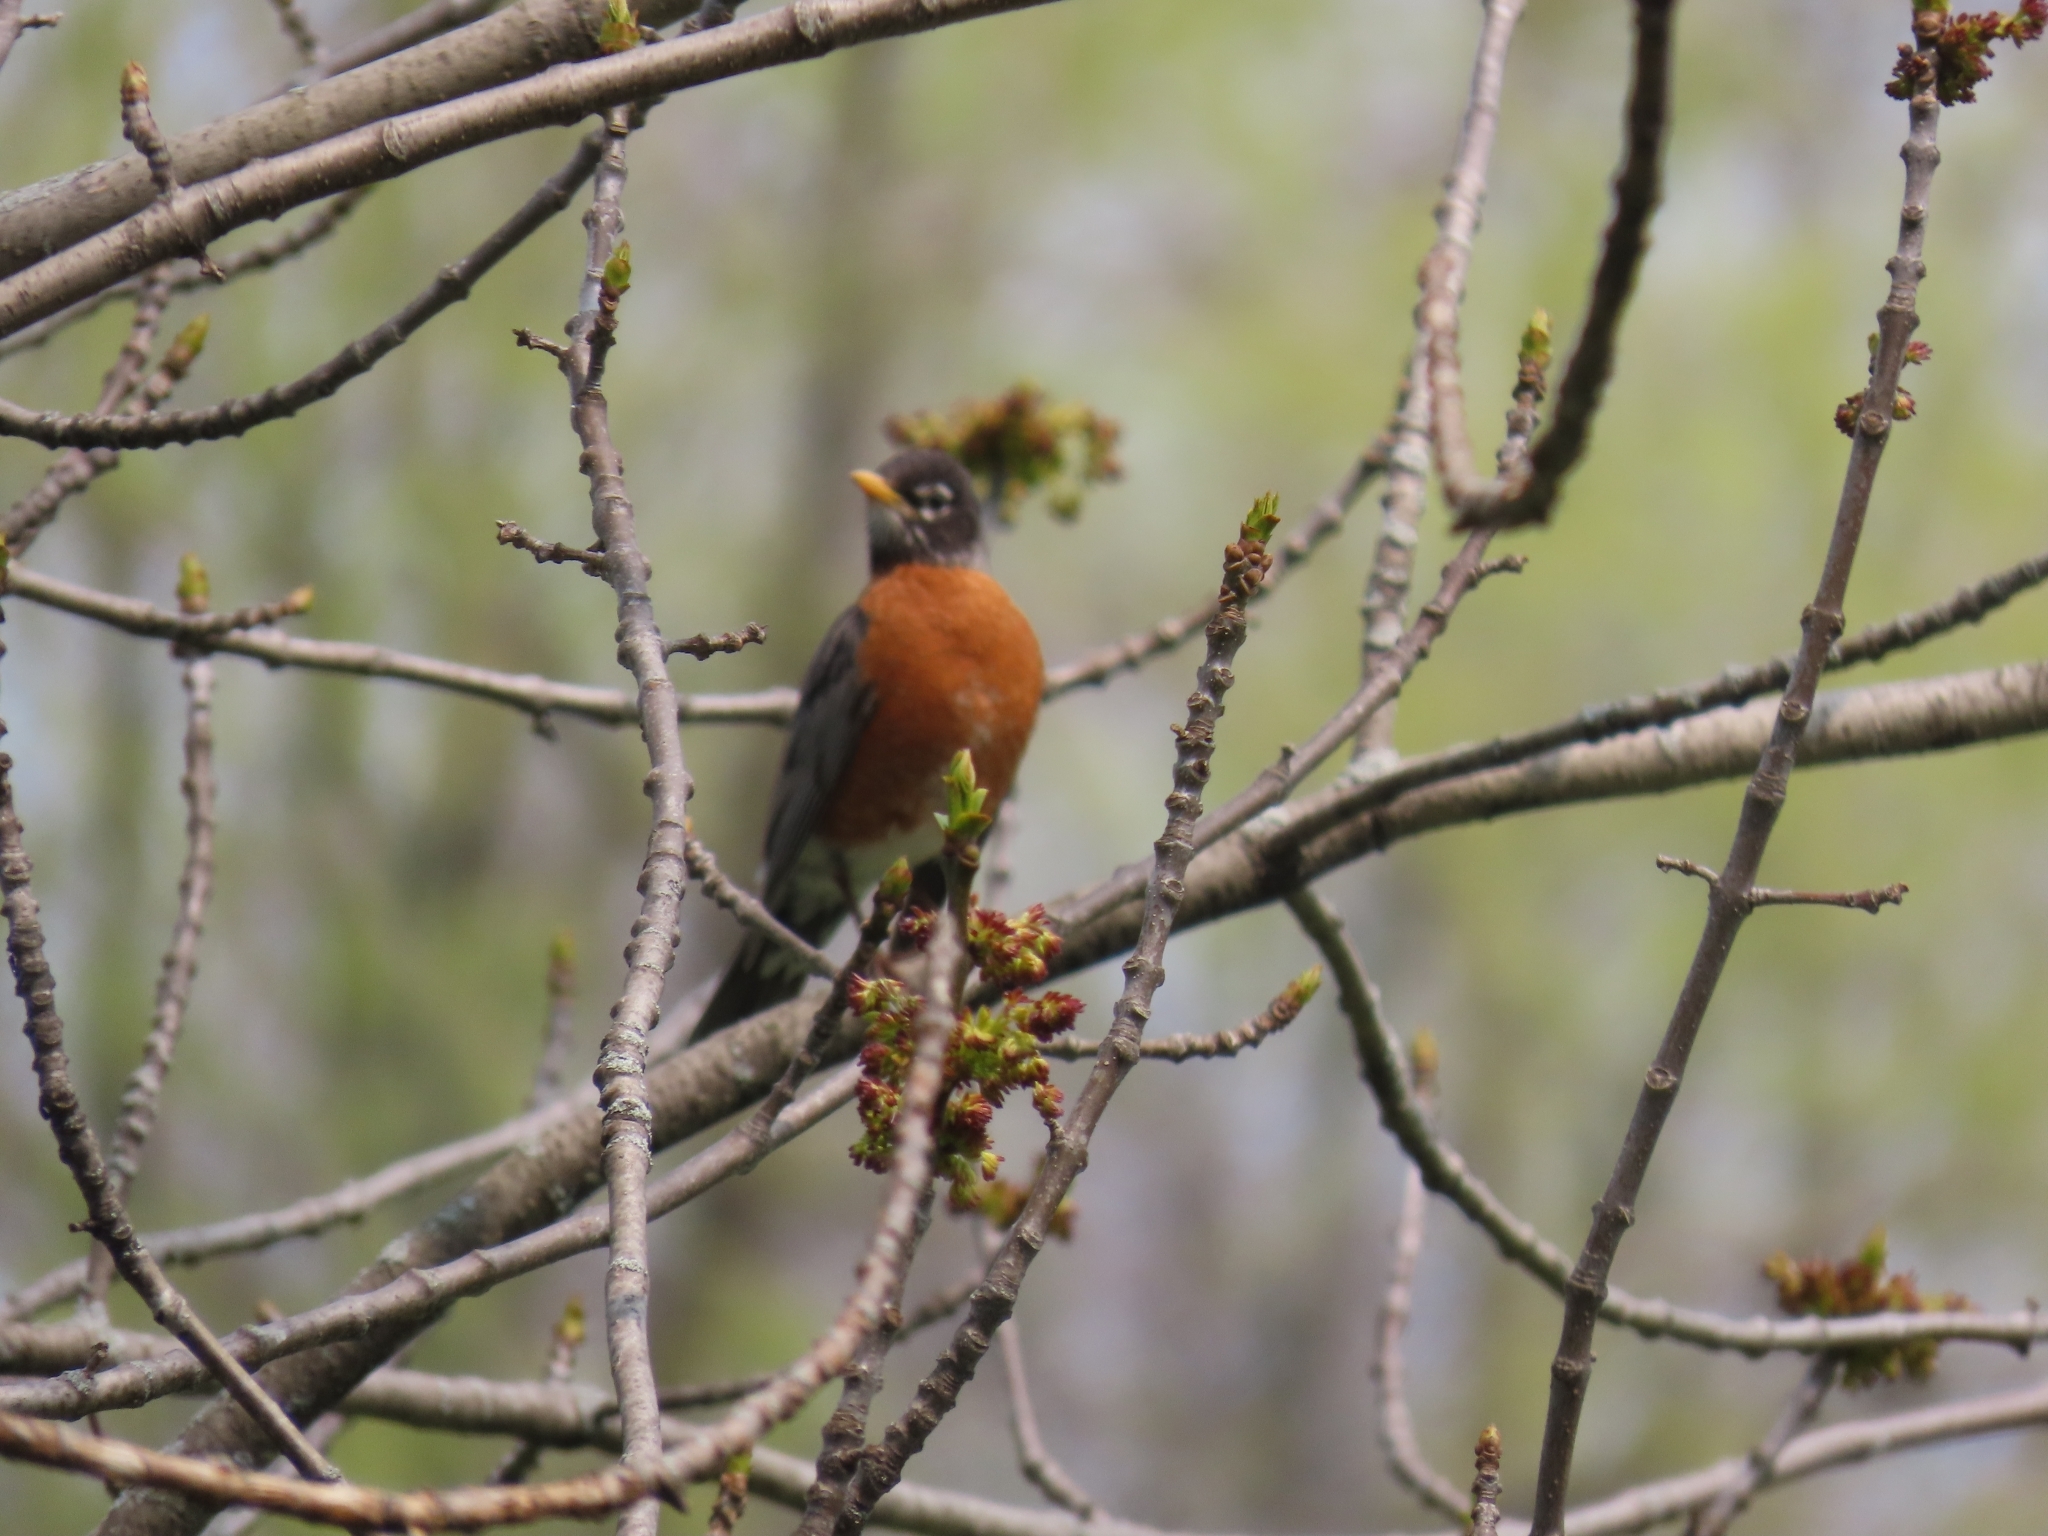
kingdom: Animalia
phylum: Chordata
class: Aves
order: Passeriformes
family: Turdidae
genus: Turdus
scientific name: Turdus migratorius
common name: American robin
